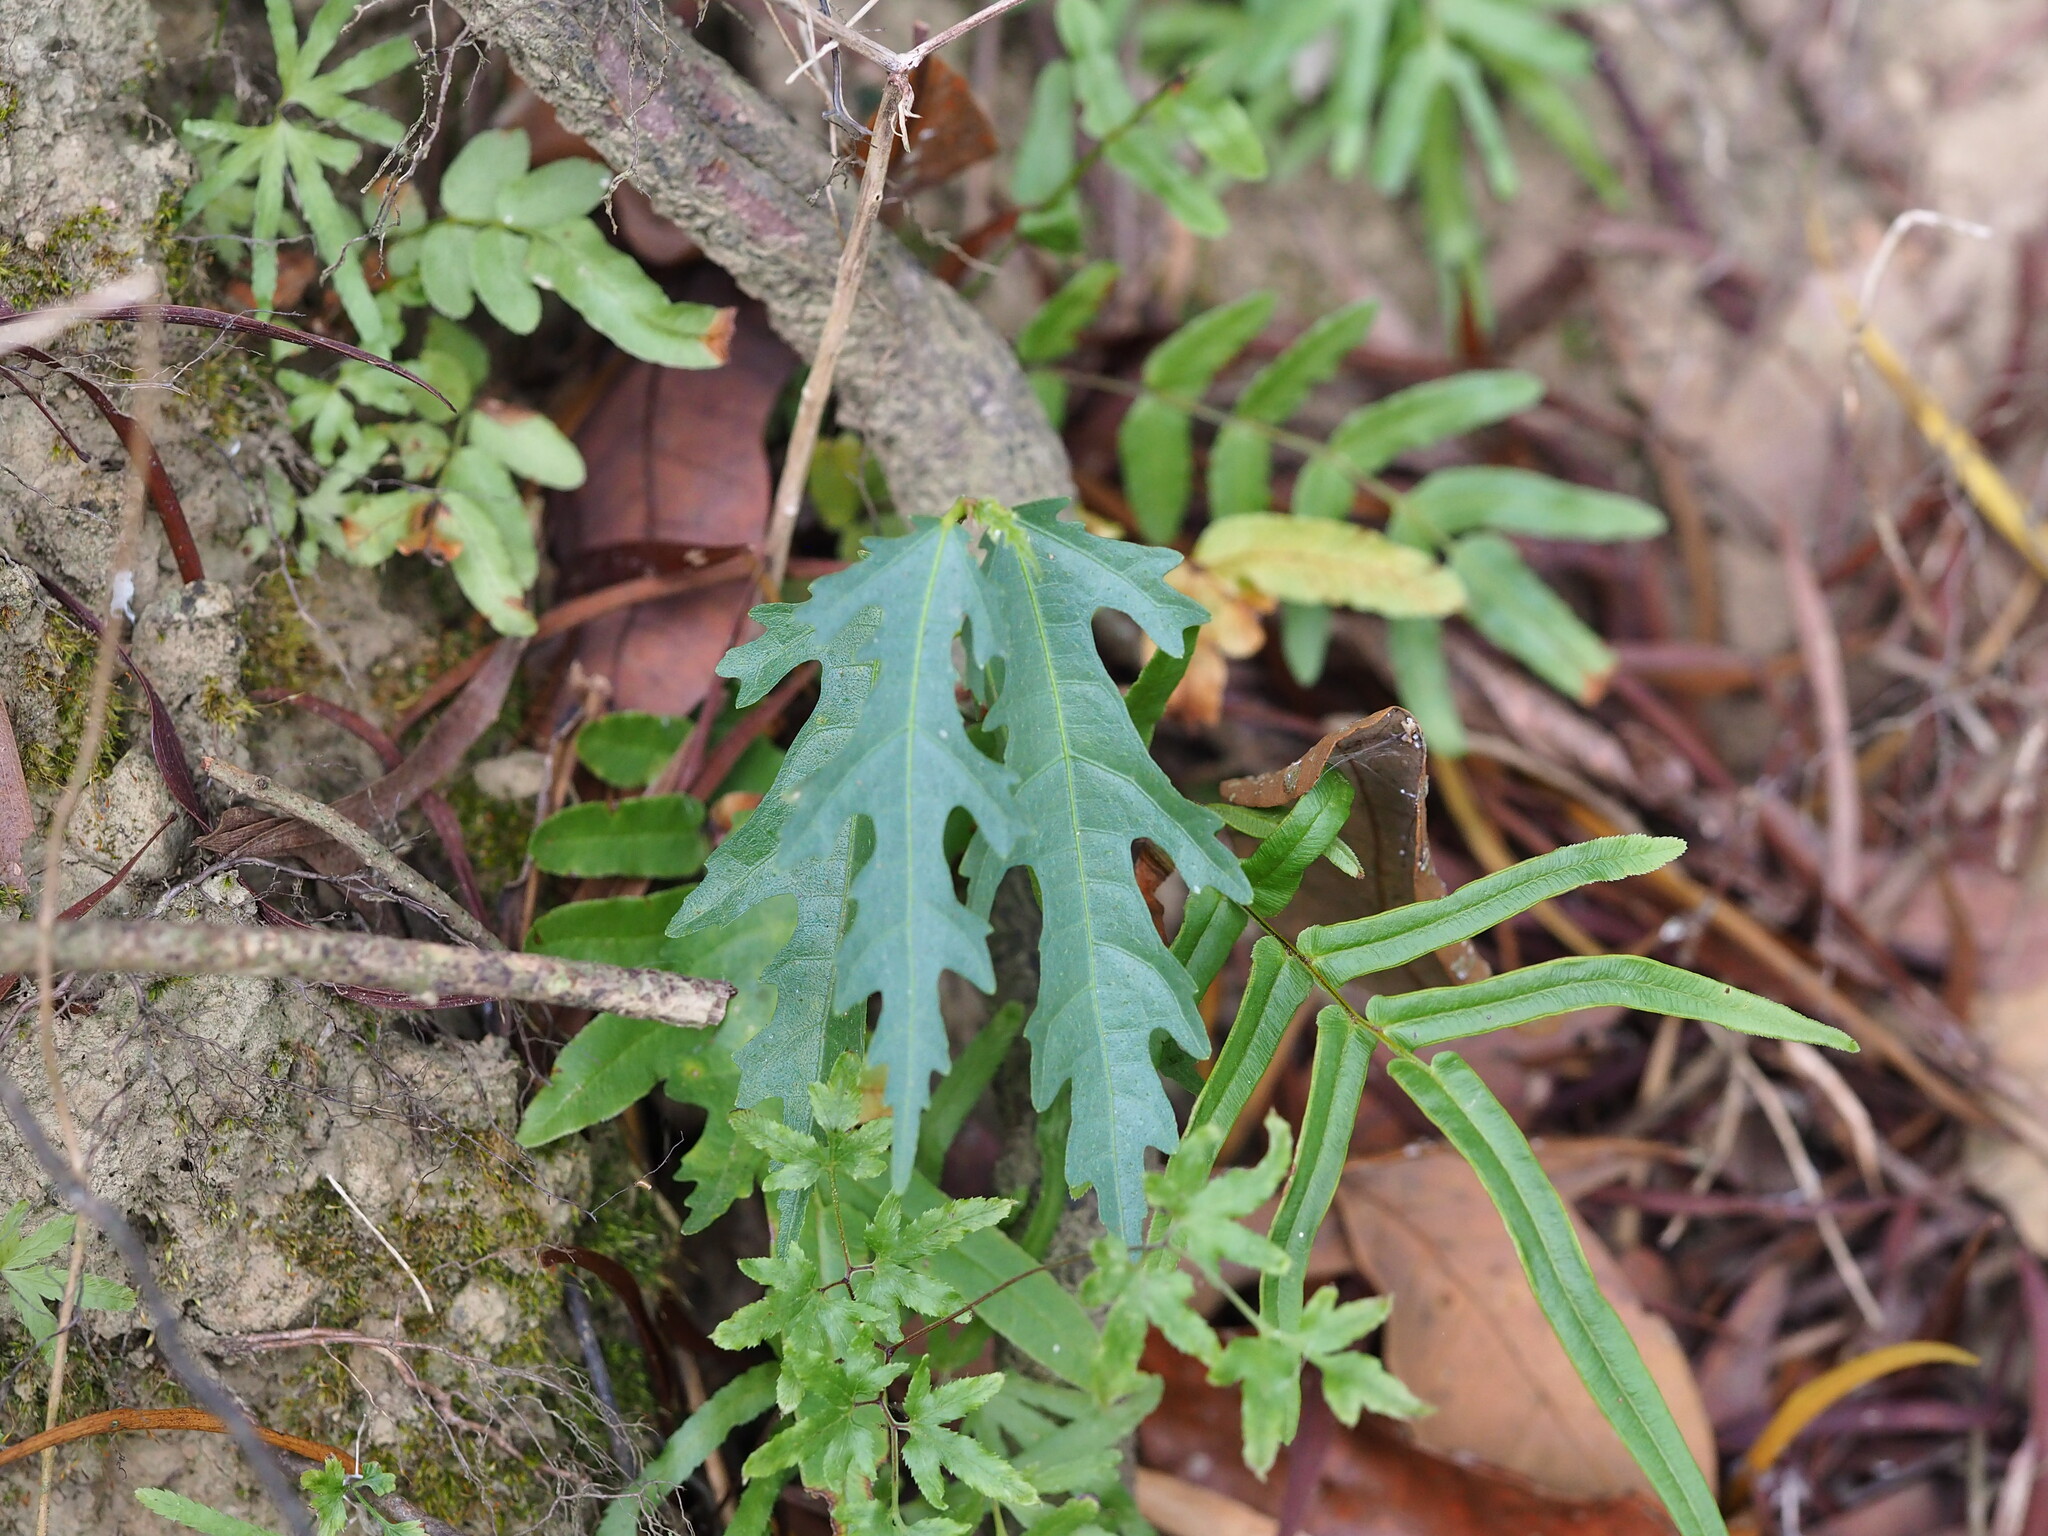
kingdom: Plantae
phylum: Tracheophyta
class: Magnoliopsida
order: Rosales
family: Moraceae
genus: Ficus
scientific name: Ficus ampelos
